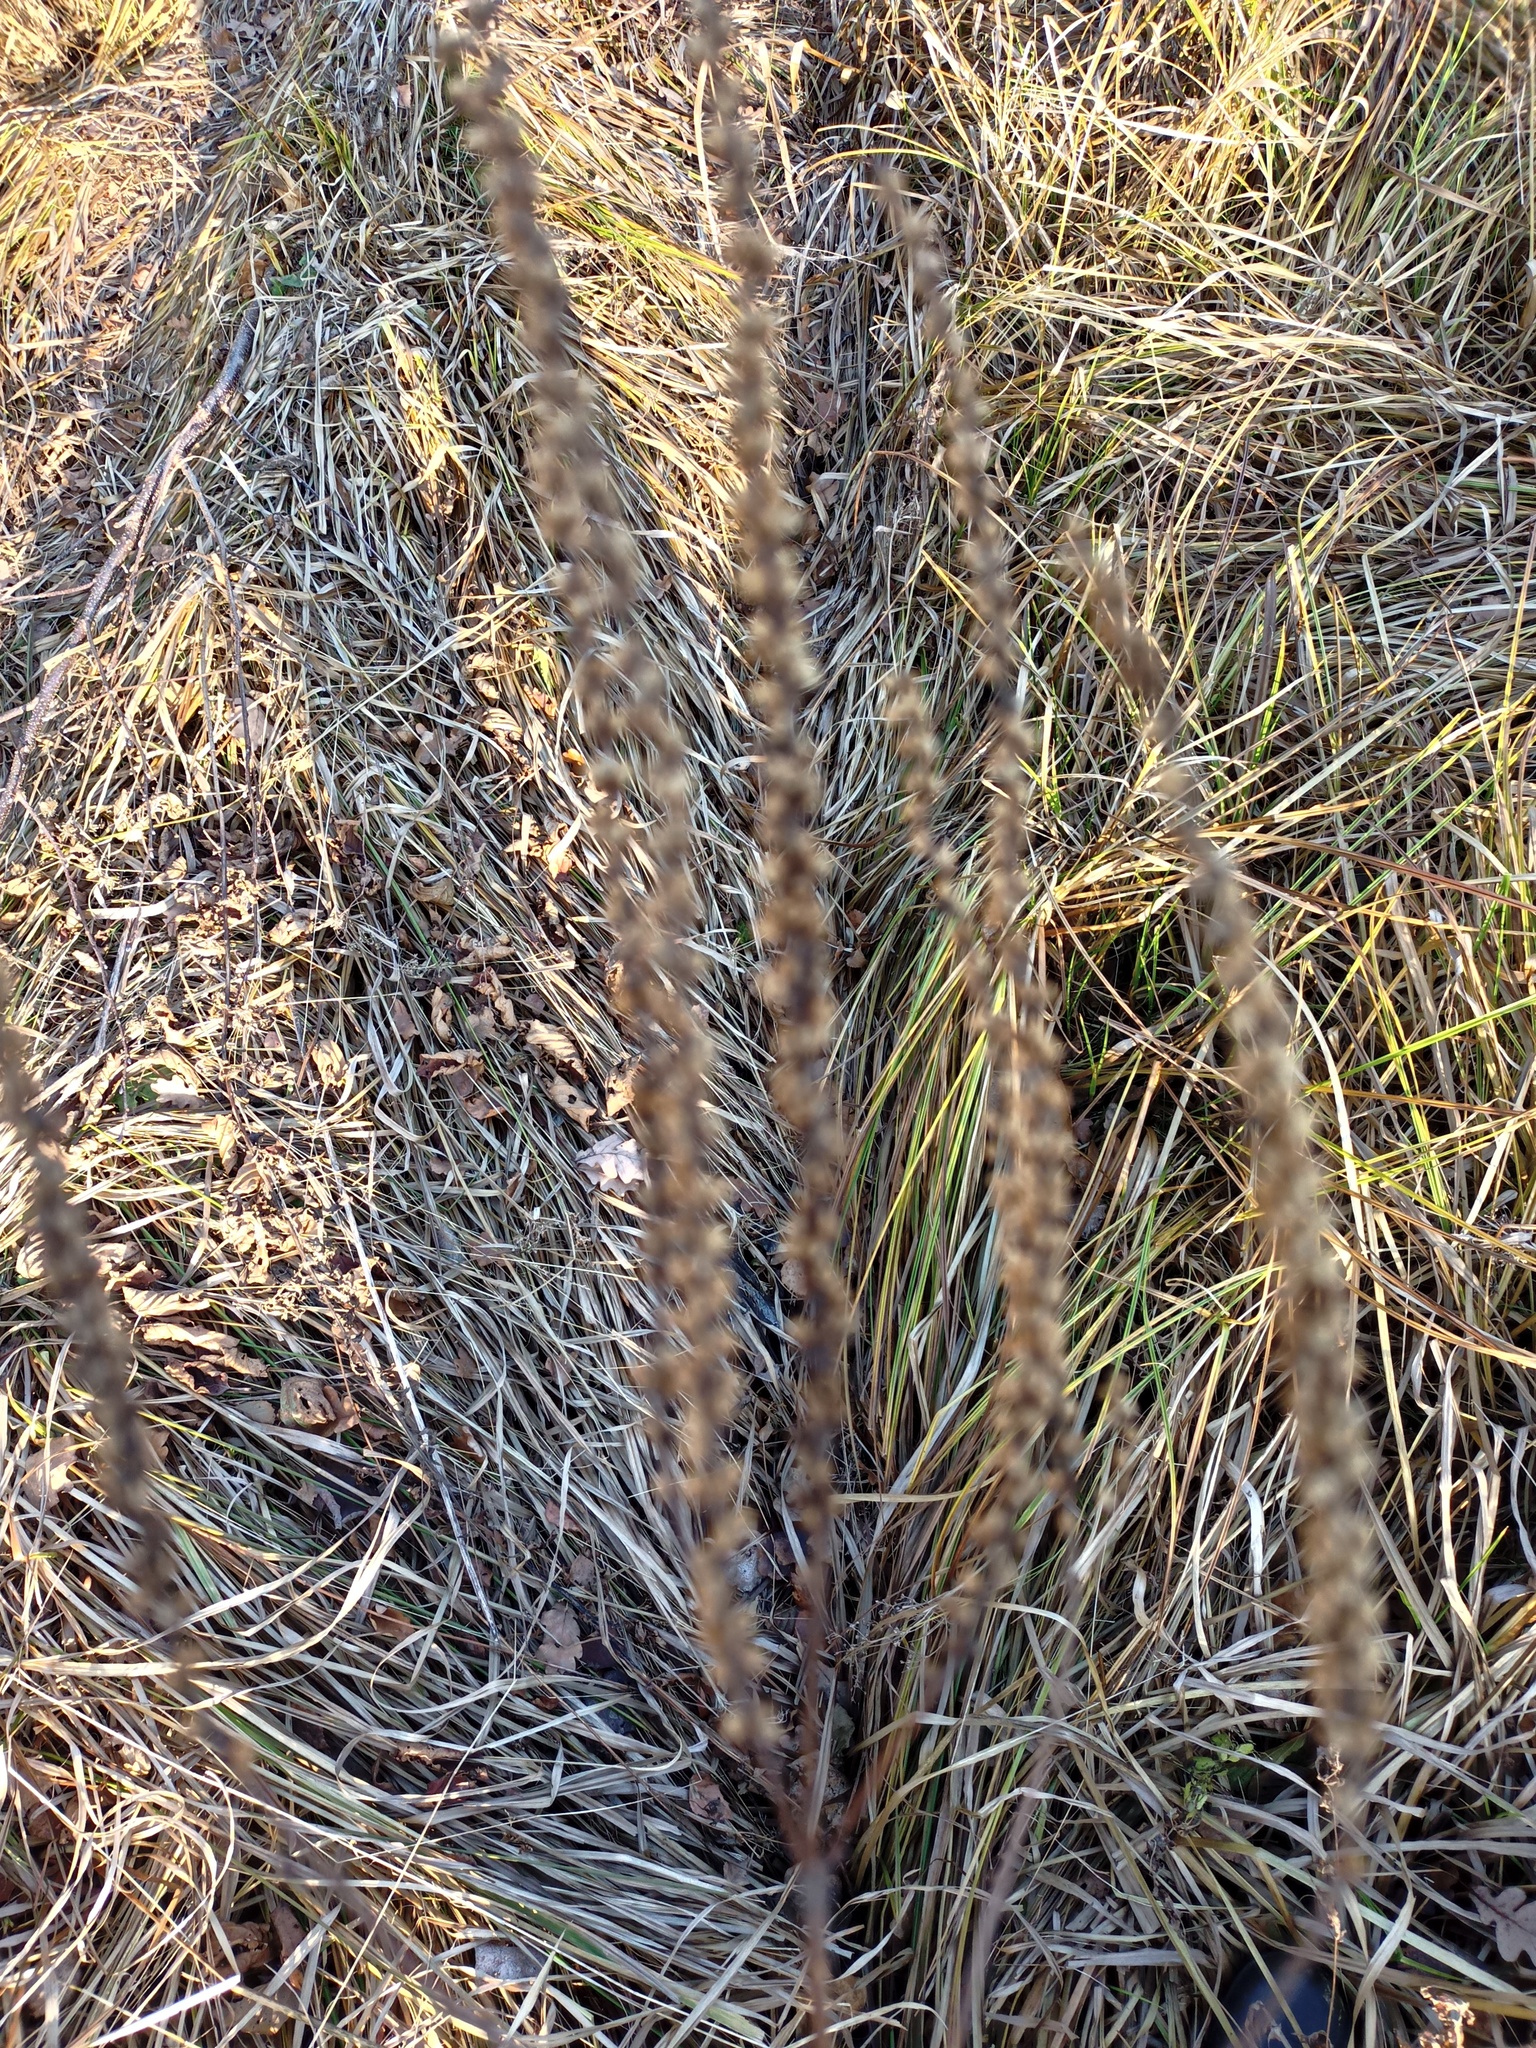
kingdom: Plantae
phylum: Tracheophyta
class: Magnoliopsida
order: Lamiales
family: Plantaginaceae
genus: Veronica
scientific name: Veronica longifolia
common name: Garden speedwell
